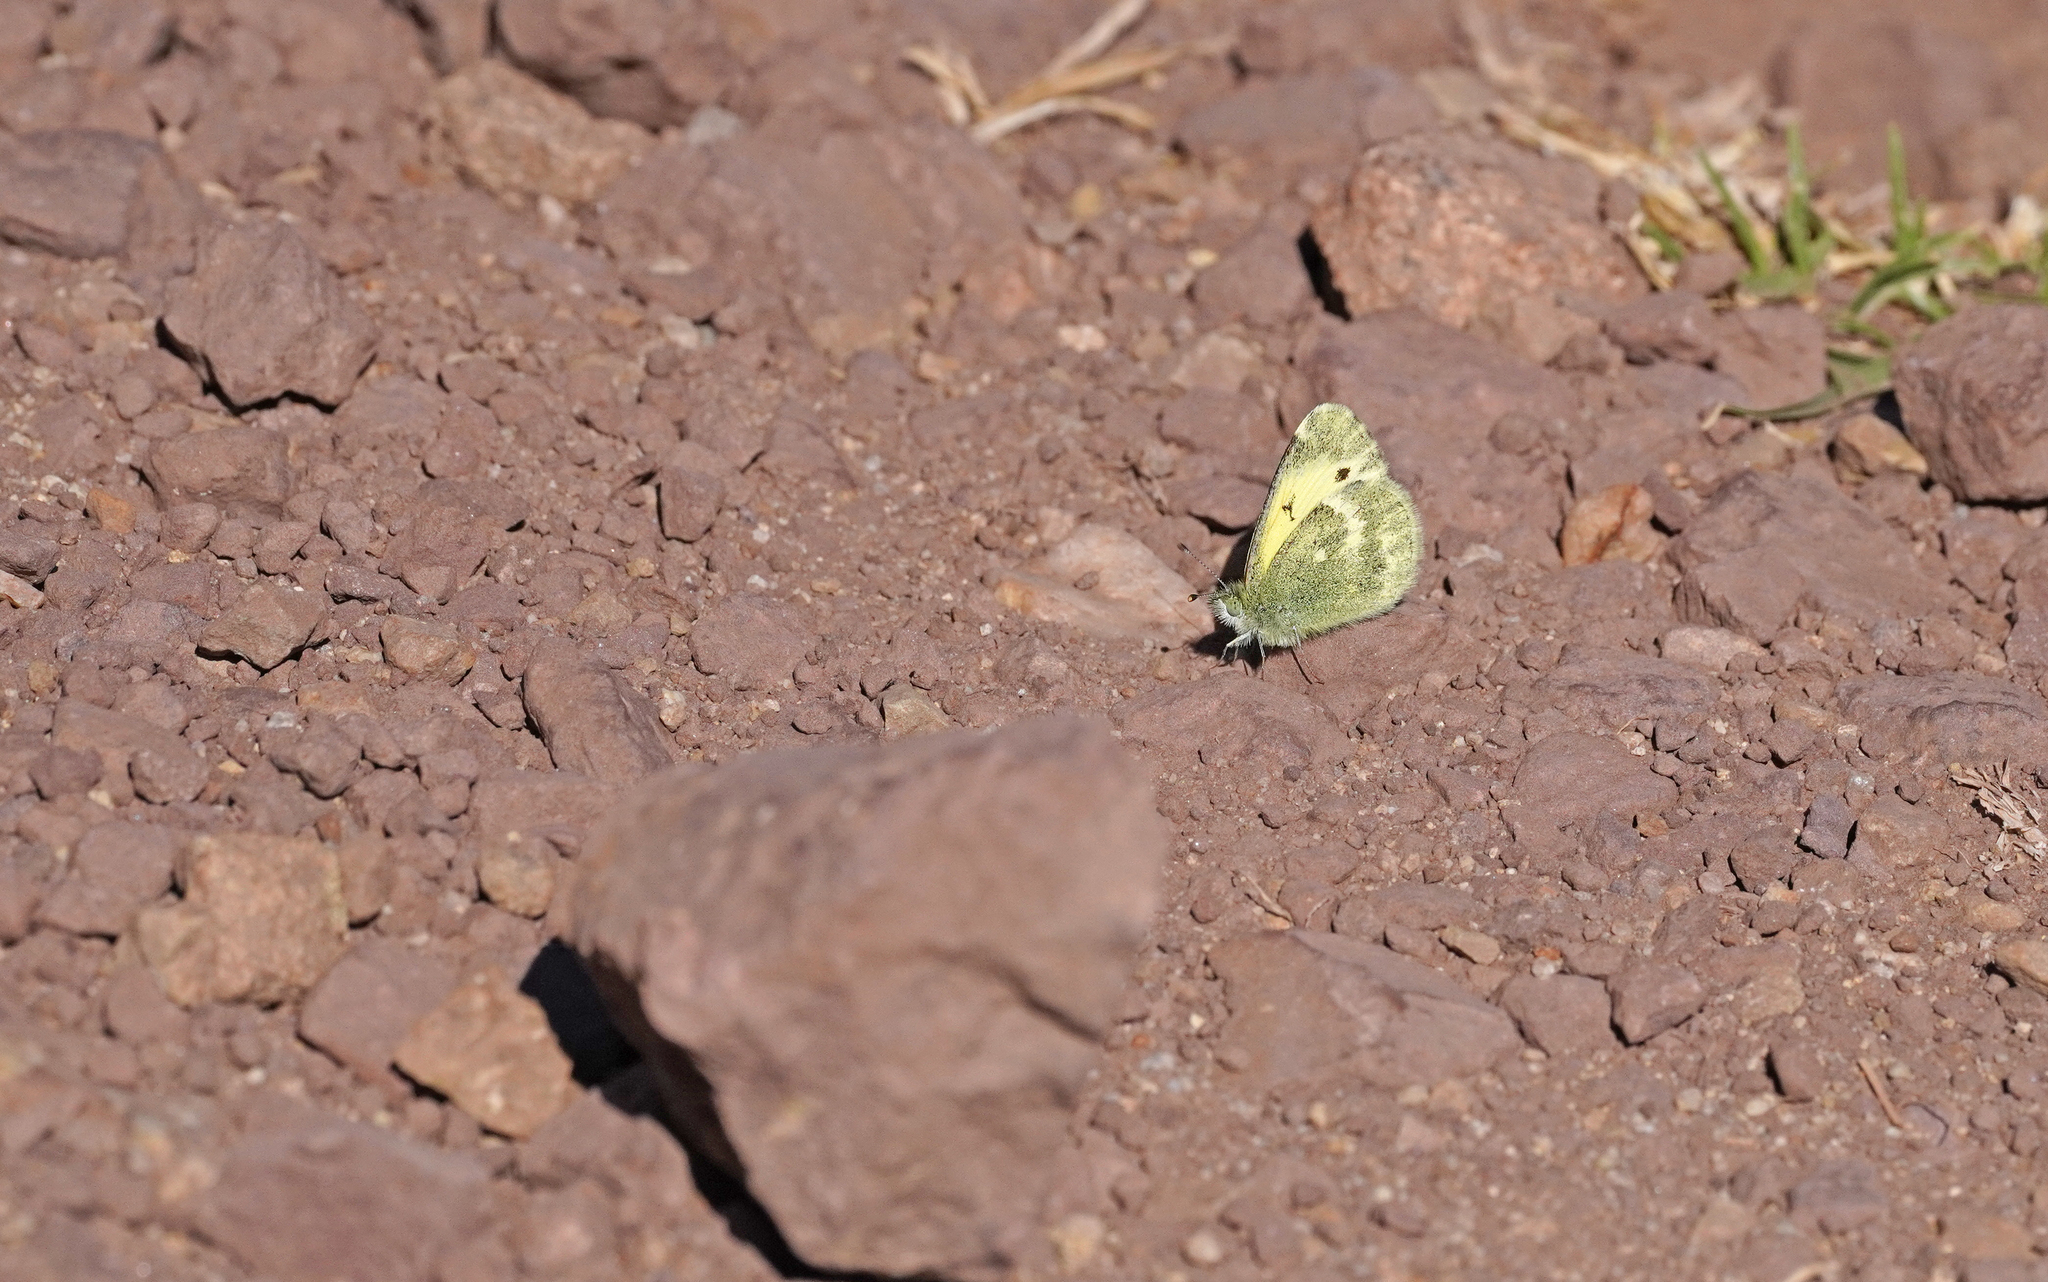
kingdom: Animalia
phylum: Arthropoda
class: Insecta
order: Lepidoptera
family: Pieridae
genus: Nathalis
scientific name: Nathalis iole
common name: Dainty sulphur
